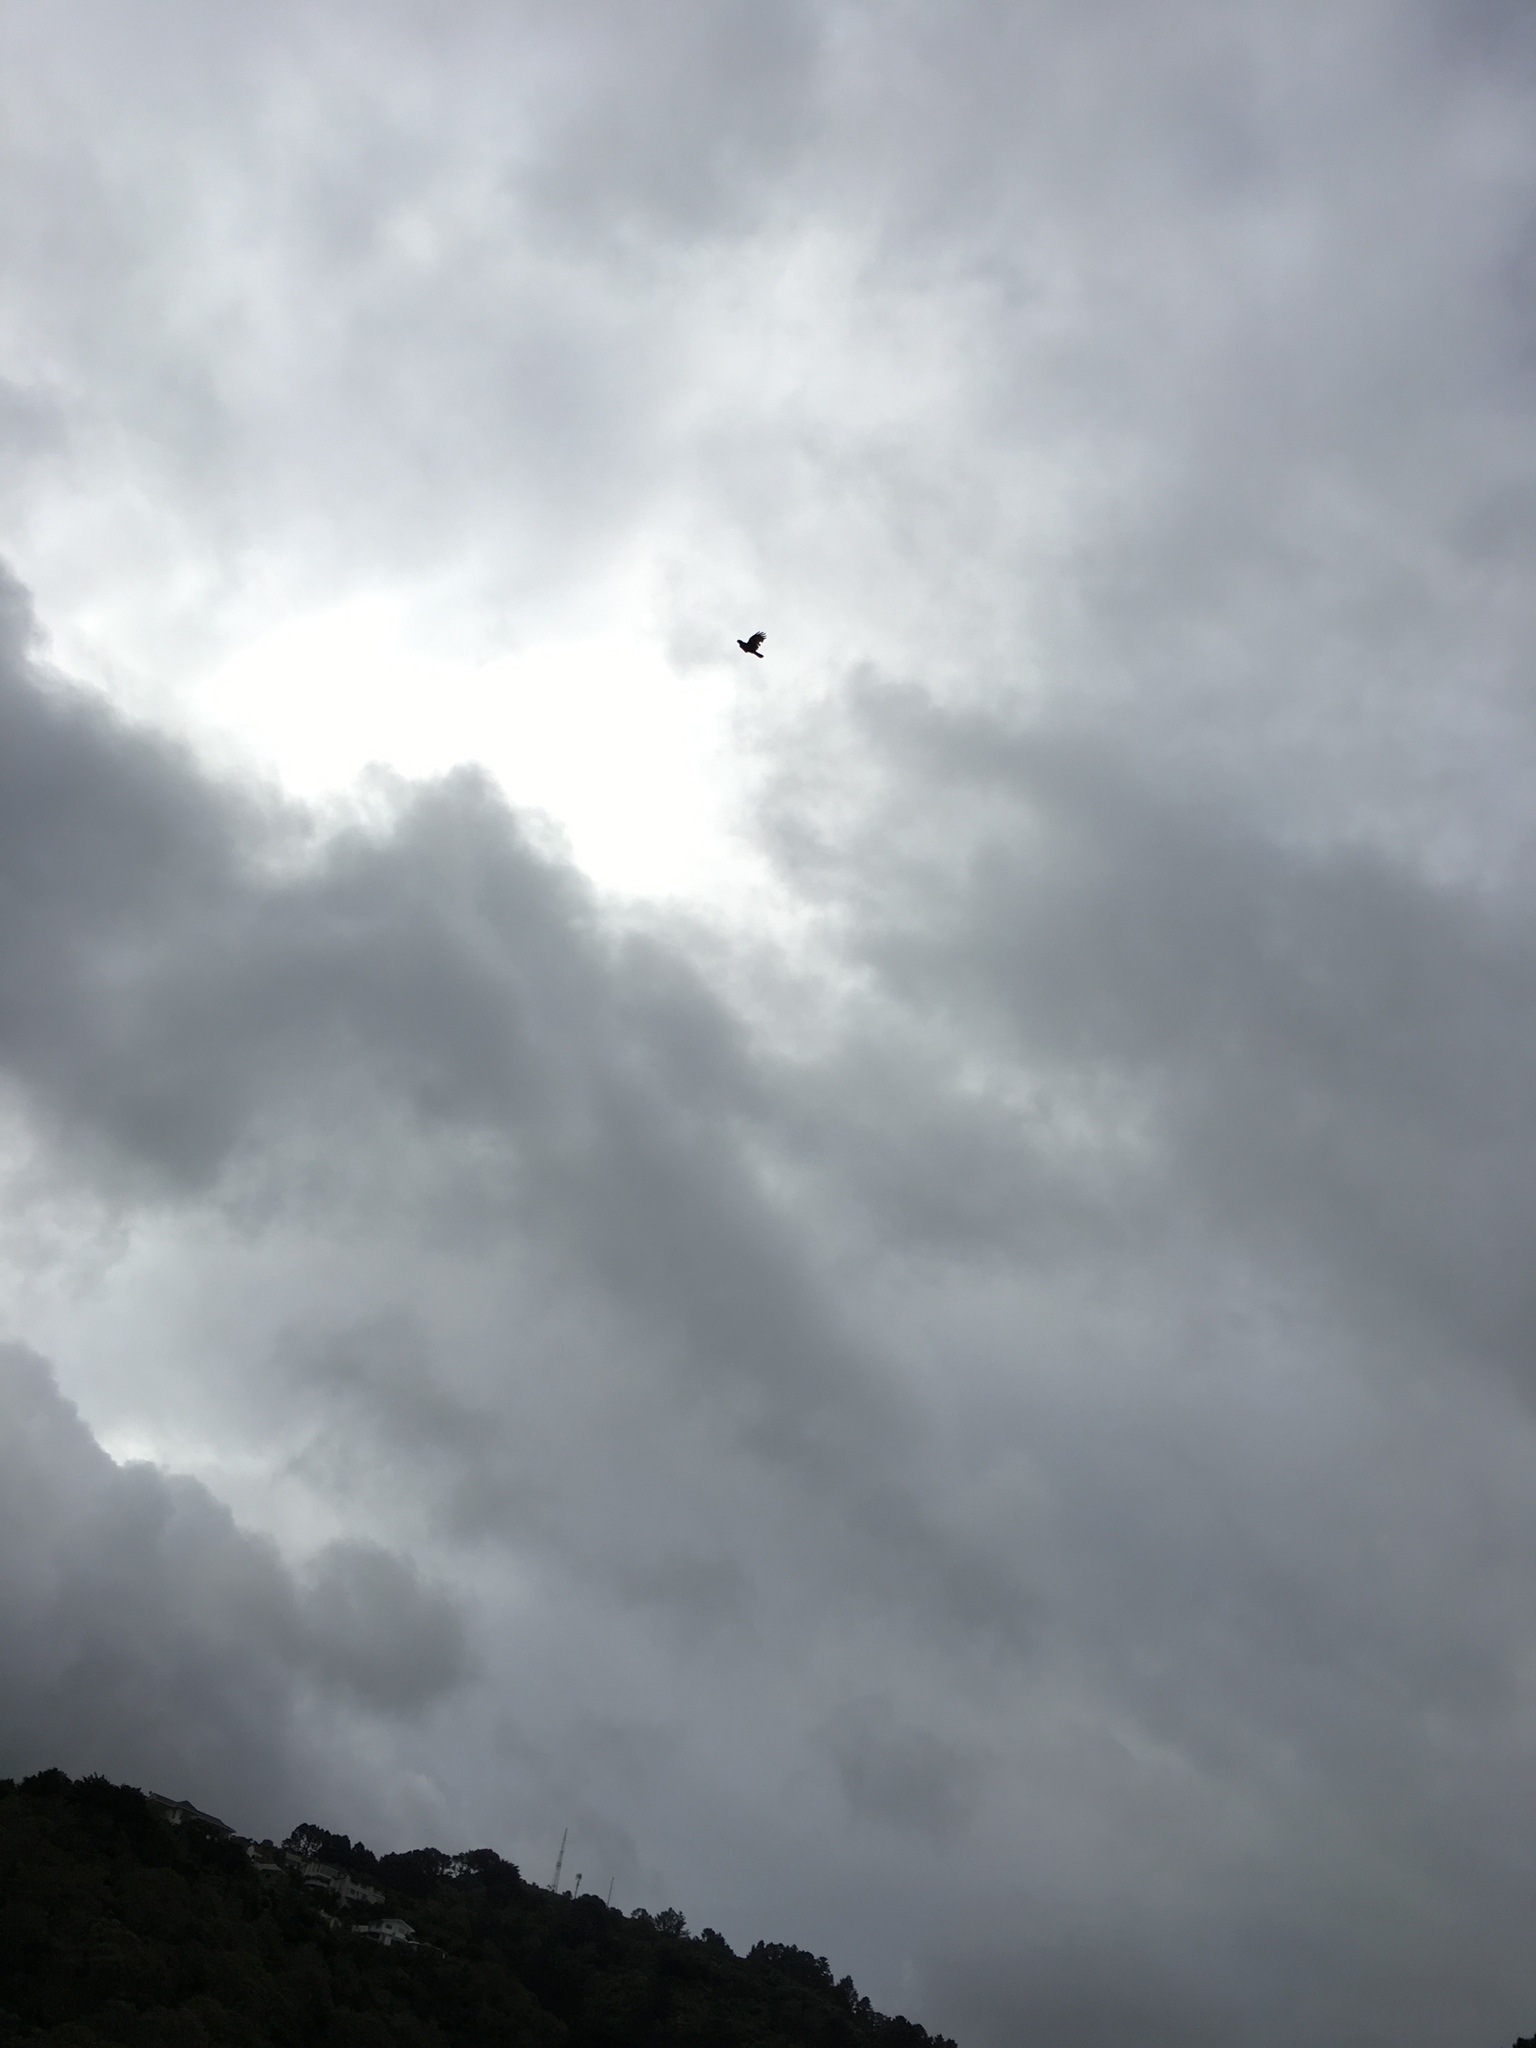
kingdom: Animalia
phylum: Chordata
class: Aves
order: Psittaciformes
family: Psittacidae
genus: Nestor
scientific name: Nestor meridionalis
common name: New zealand kaka
